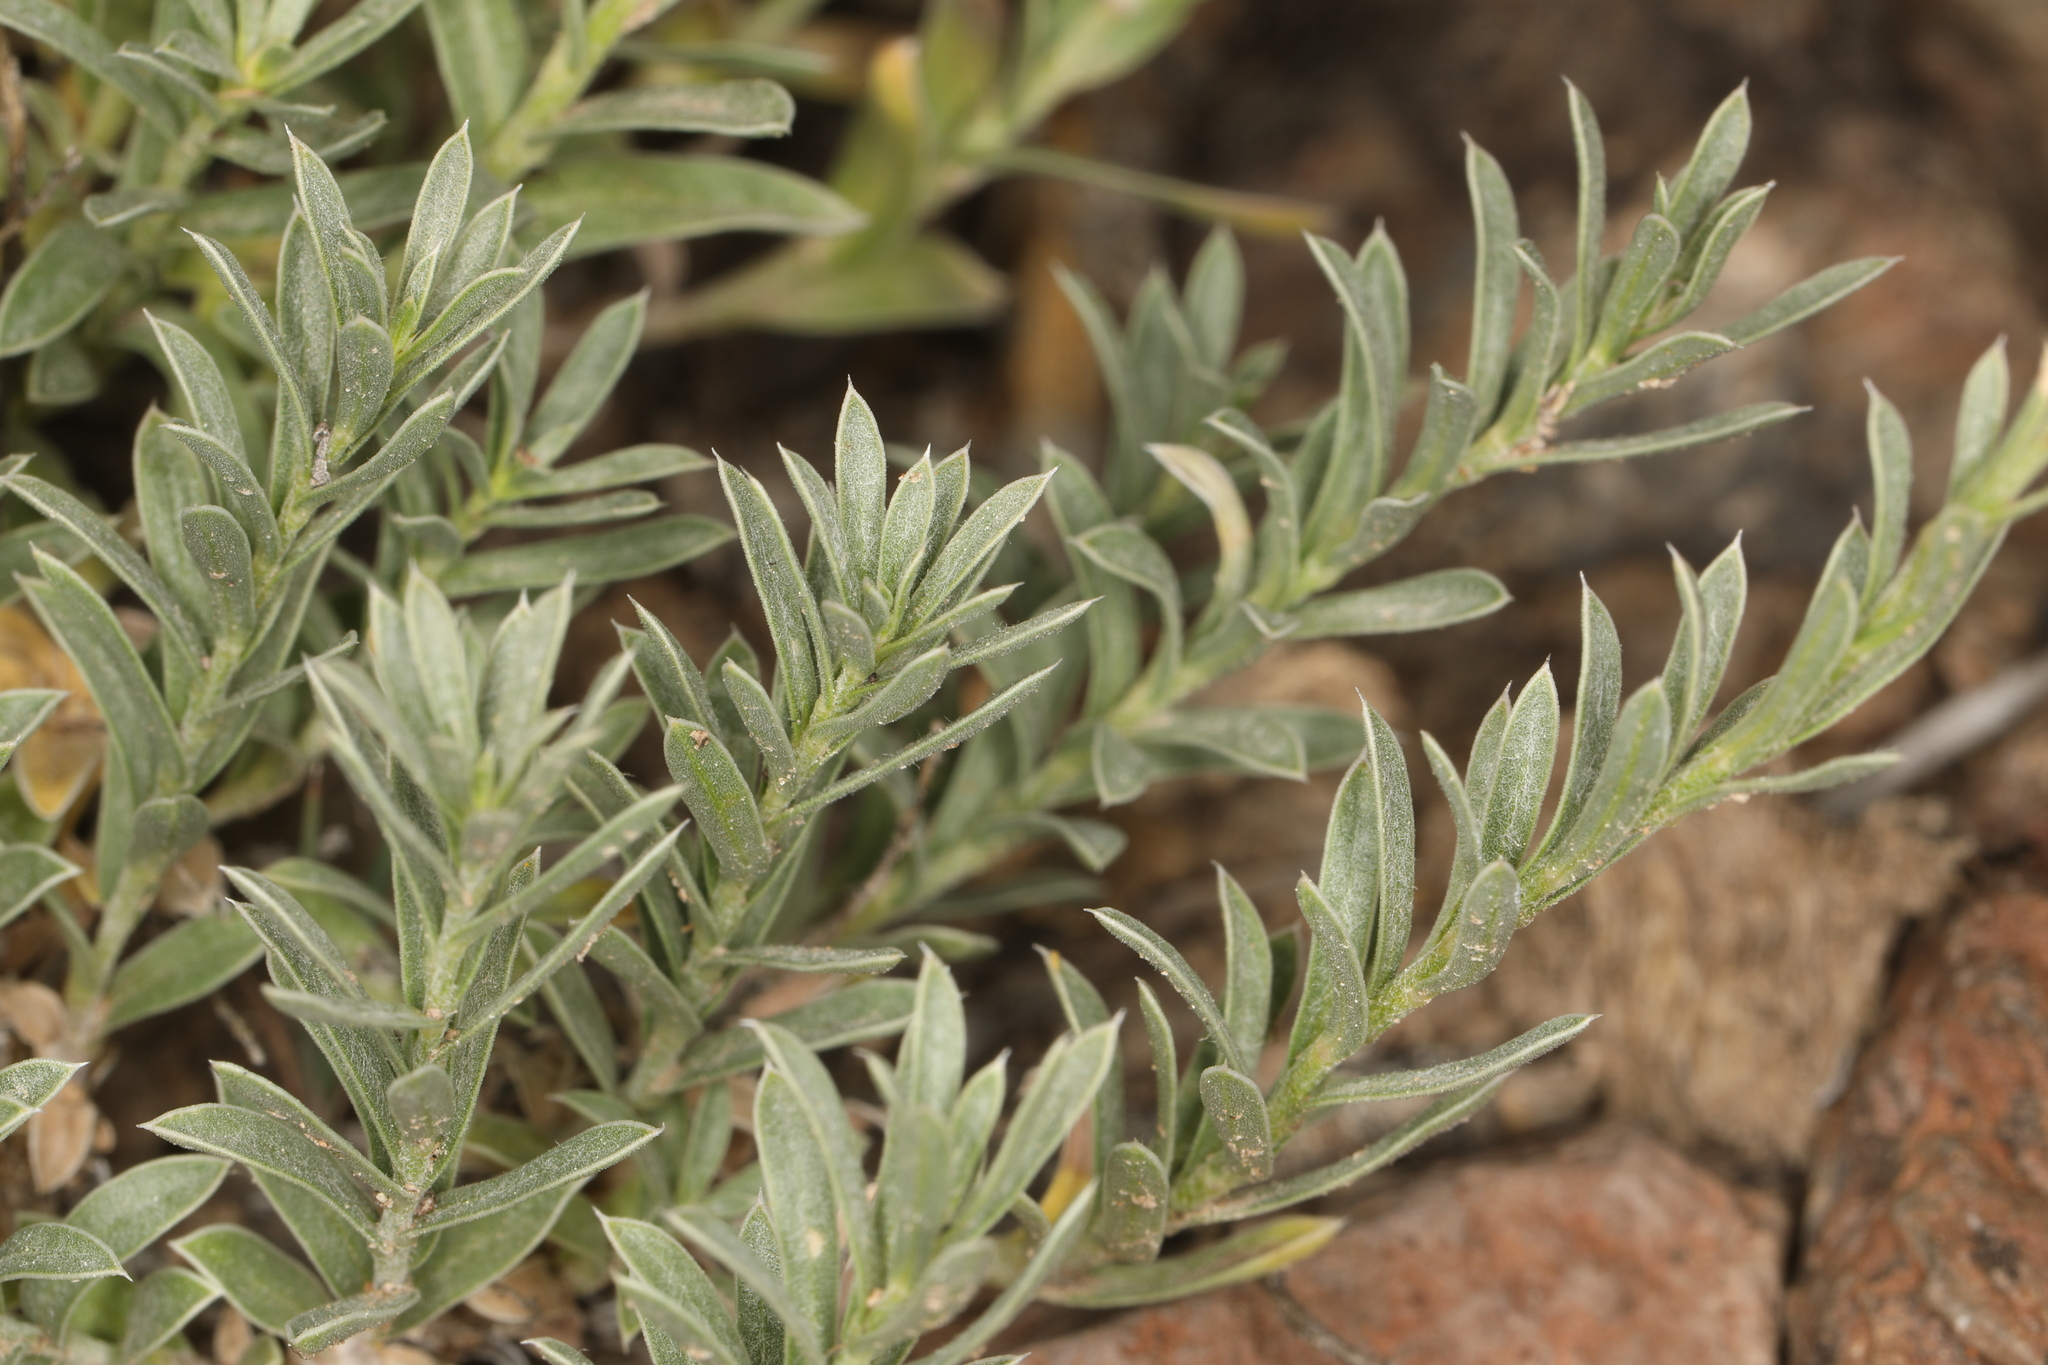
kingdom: Plantae
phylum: Tracheophyta
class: Magnoliopsida
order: Asterales
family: Asteraceae
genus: Ionactis
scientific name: Ionactis alpina
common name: Crag aster
